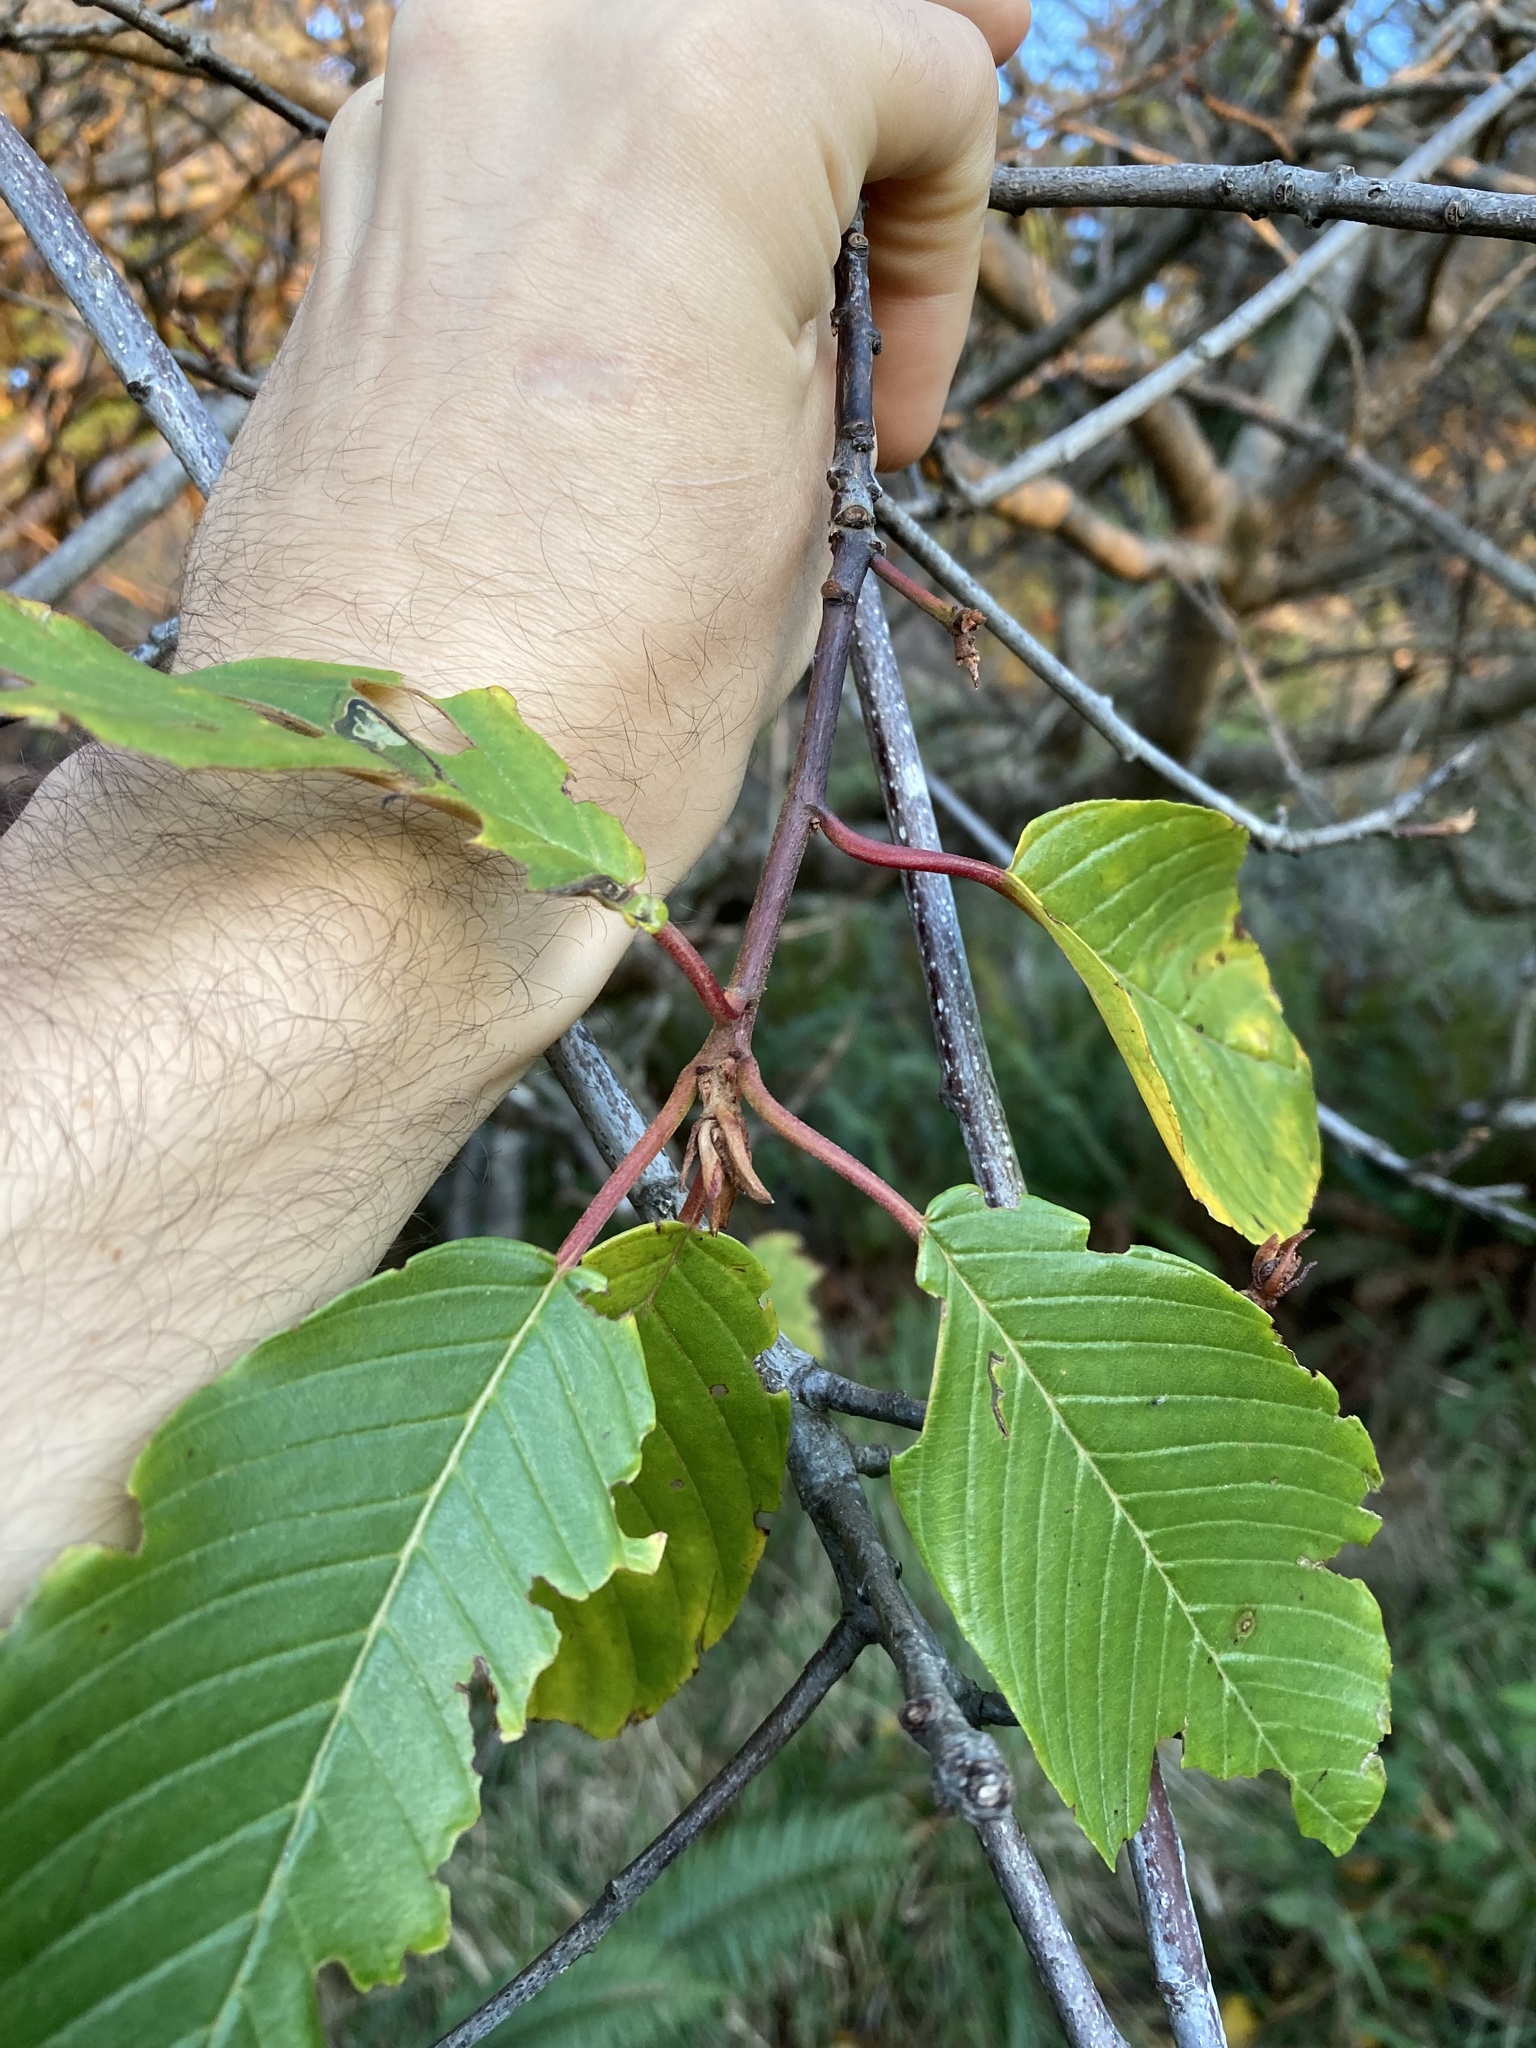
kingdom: Plantae
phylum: Tracheophyta
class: Magnoliopsida
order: Rosales
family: Rhamnaceae
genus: Frangula
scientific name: Frangula purshiana
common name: Cascara buckthorn
